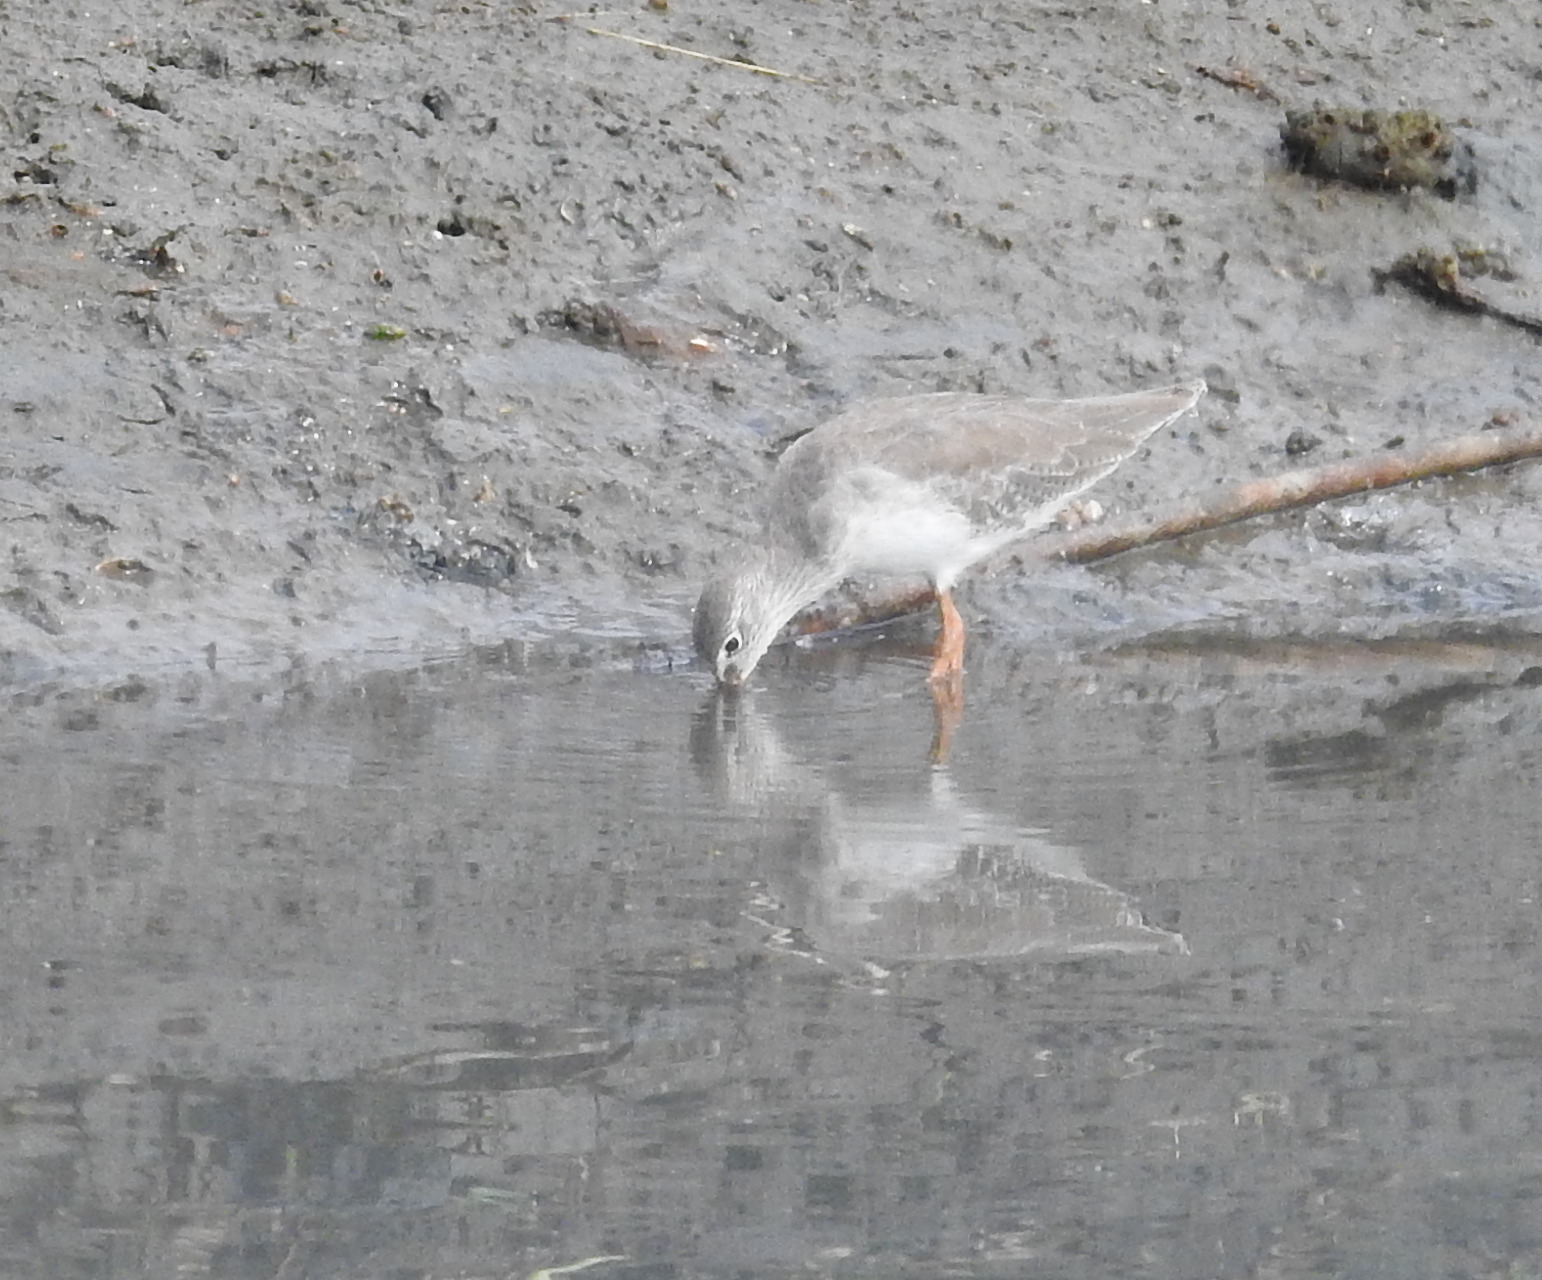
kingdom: Animalia
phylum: Chordata
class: Aves
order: Charadriiformes
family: Scolopacidae
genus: Tringa
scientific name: Tringa totanus
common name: Common redshank
